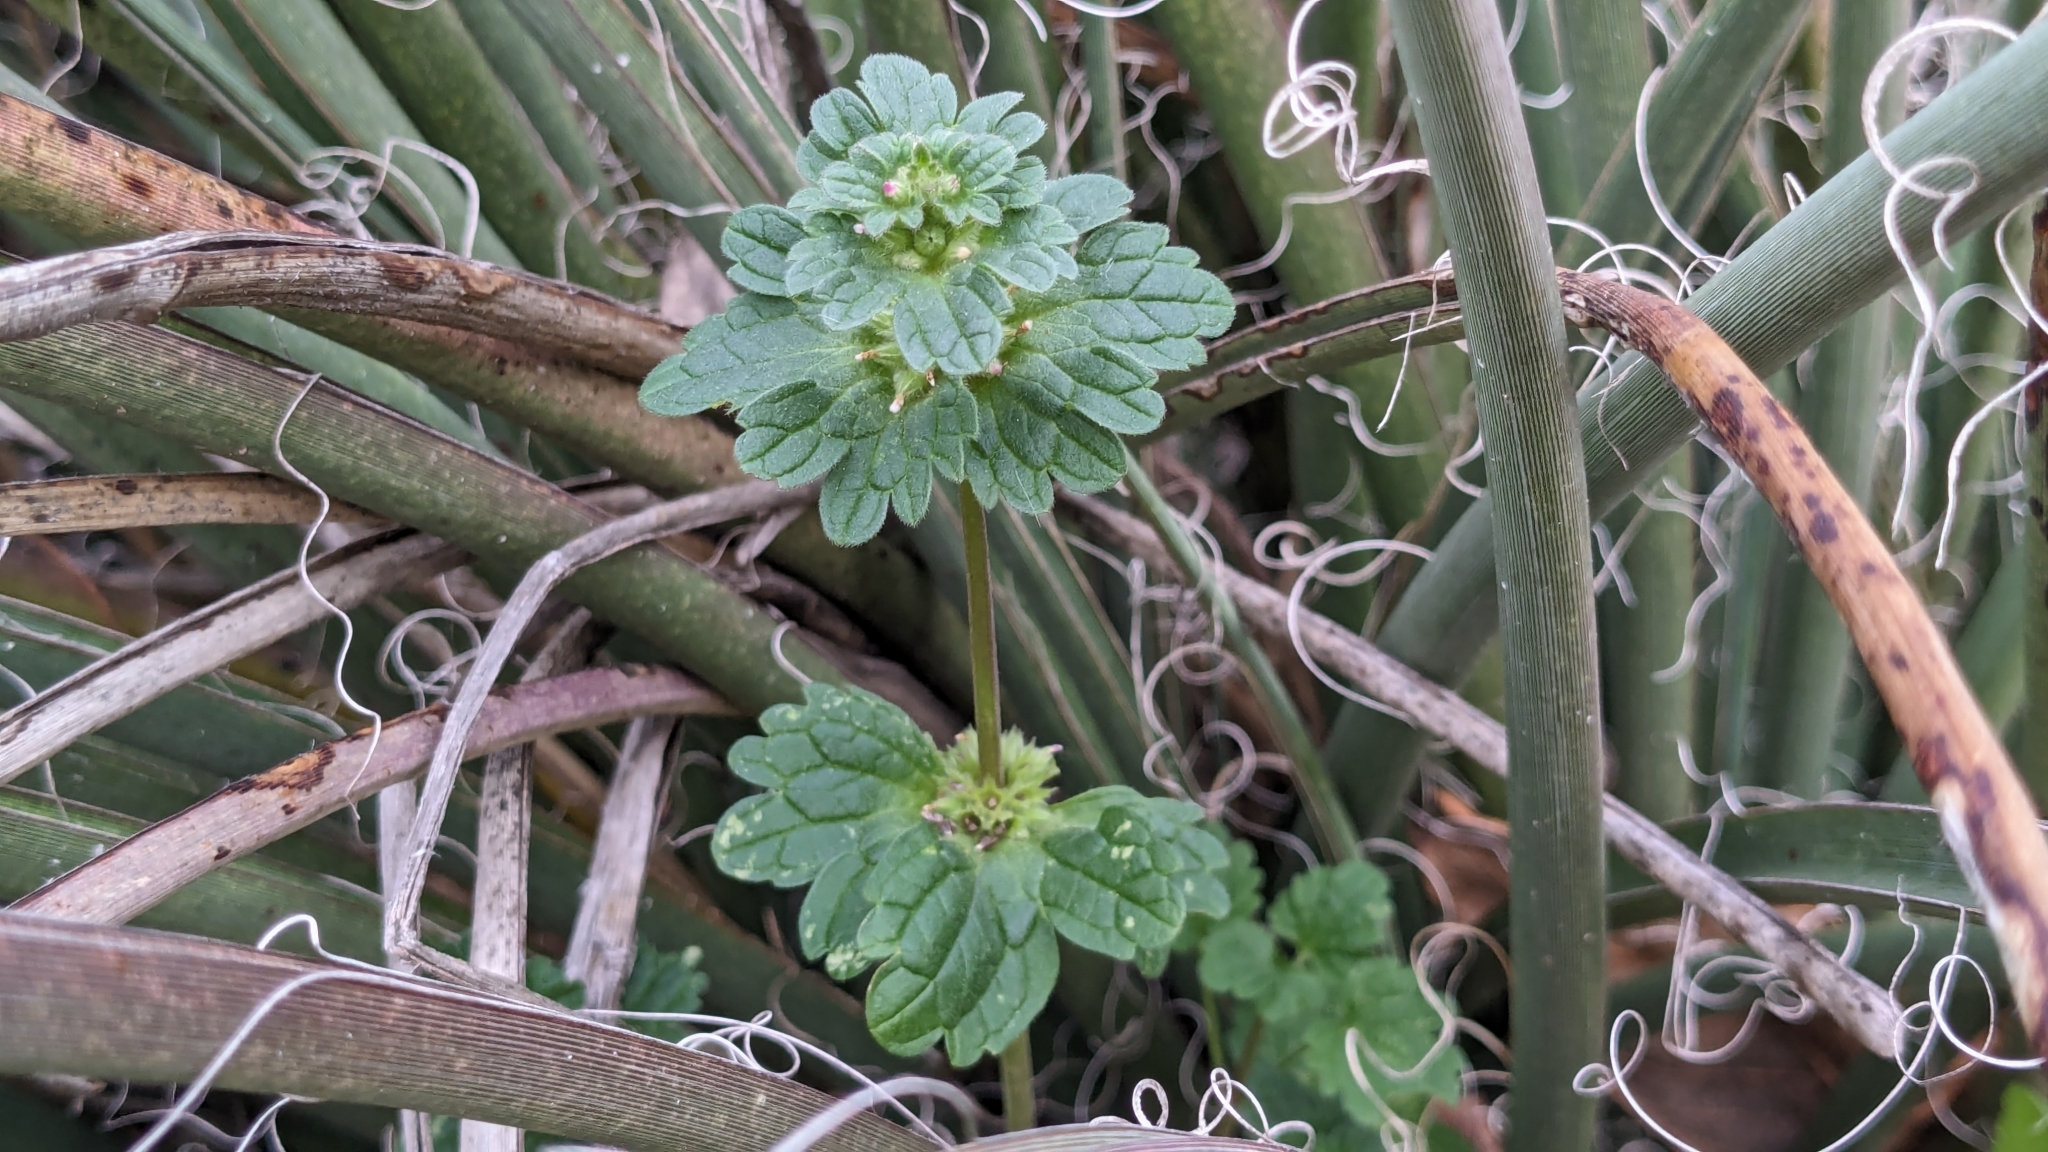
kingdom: Plantae
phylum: Tracheophyta
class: Magnoliopsida
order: Lamiales
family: Lamiaceae
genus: Lamium
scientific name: Lamium amplexicaule
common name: Henbit dead-nettle
